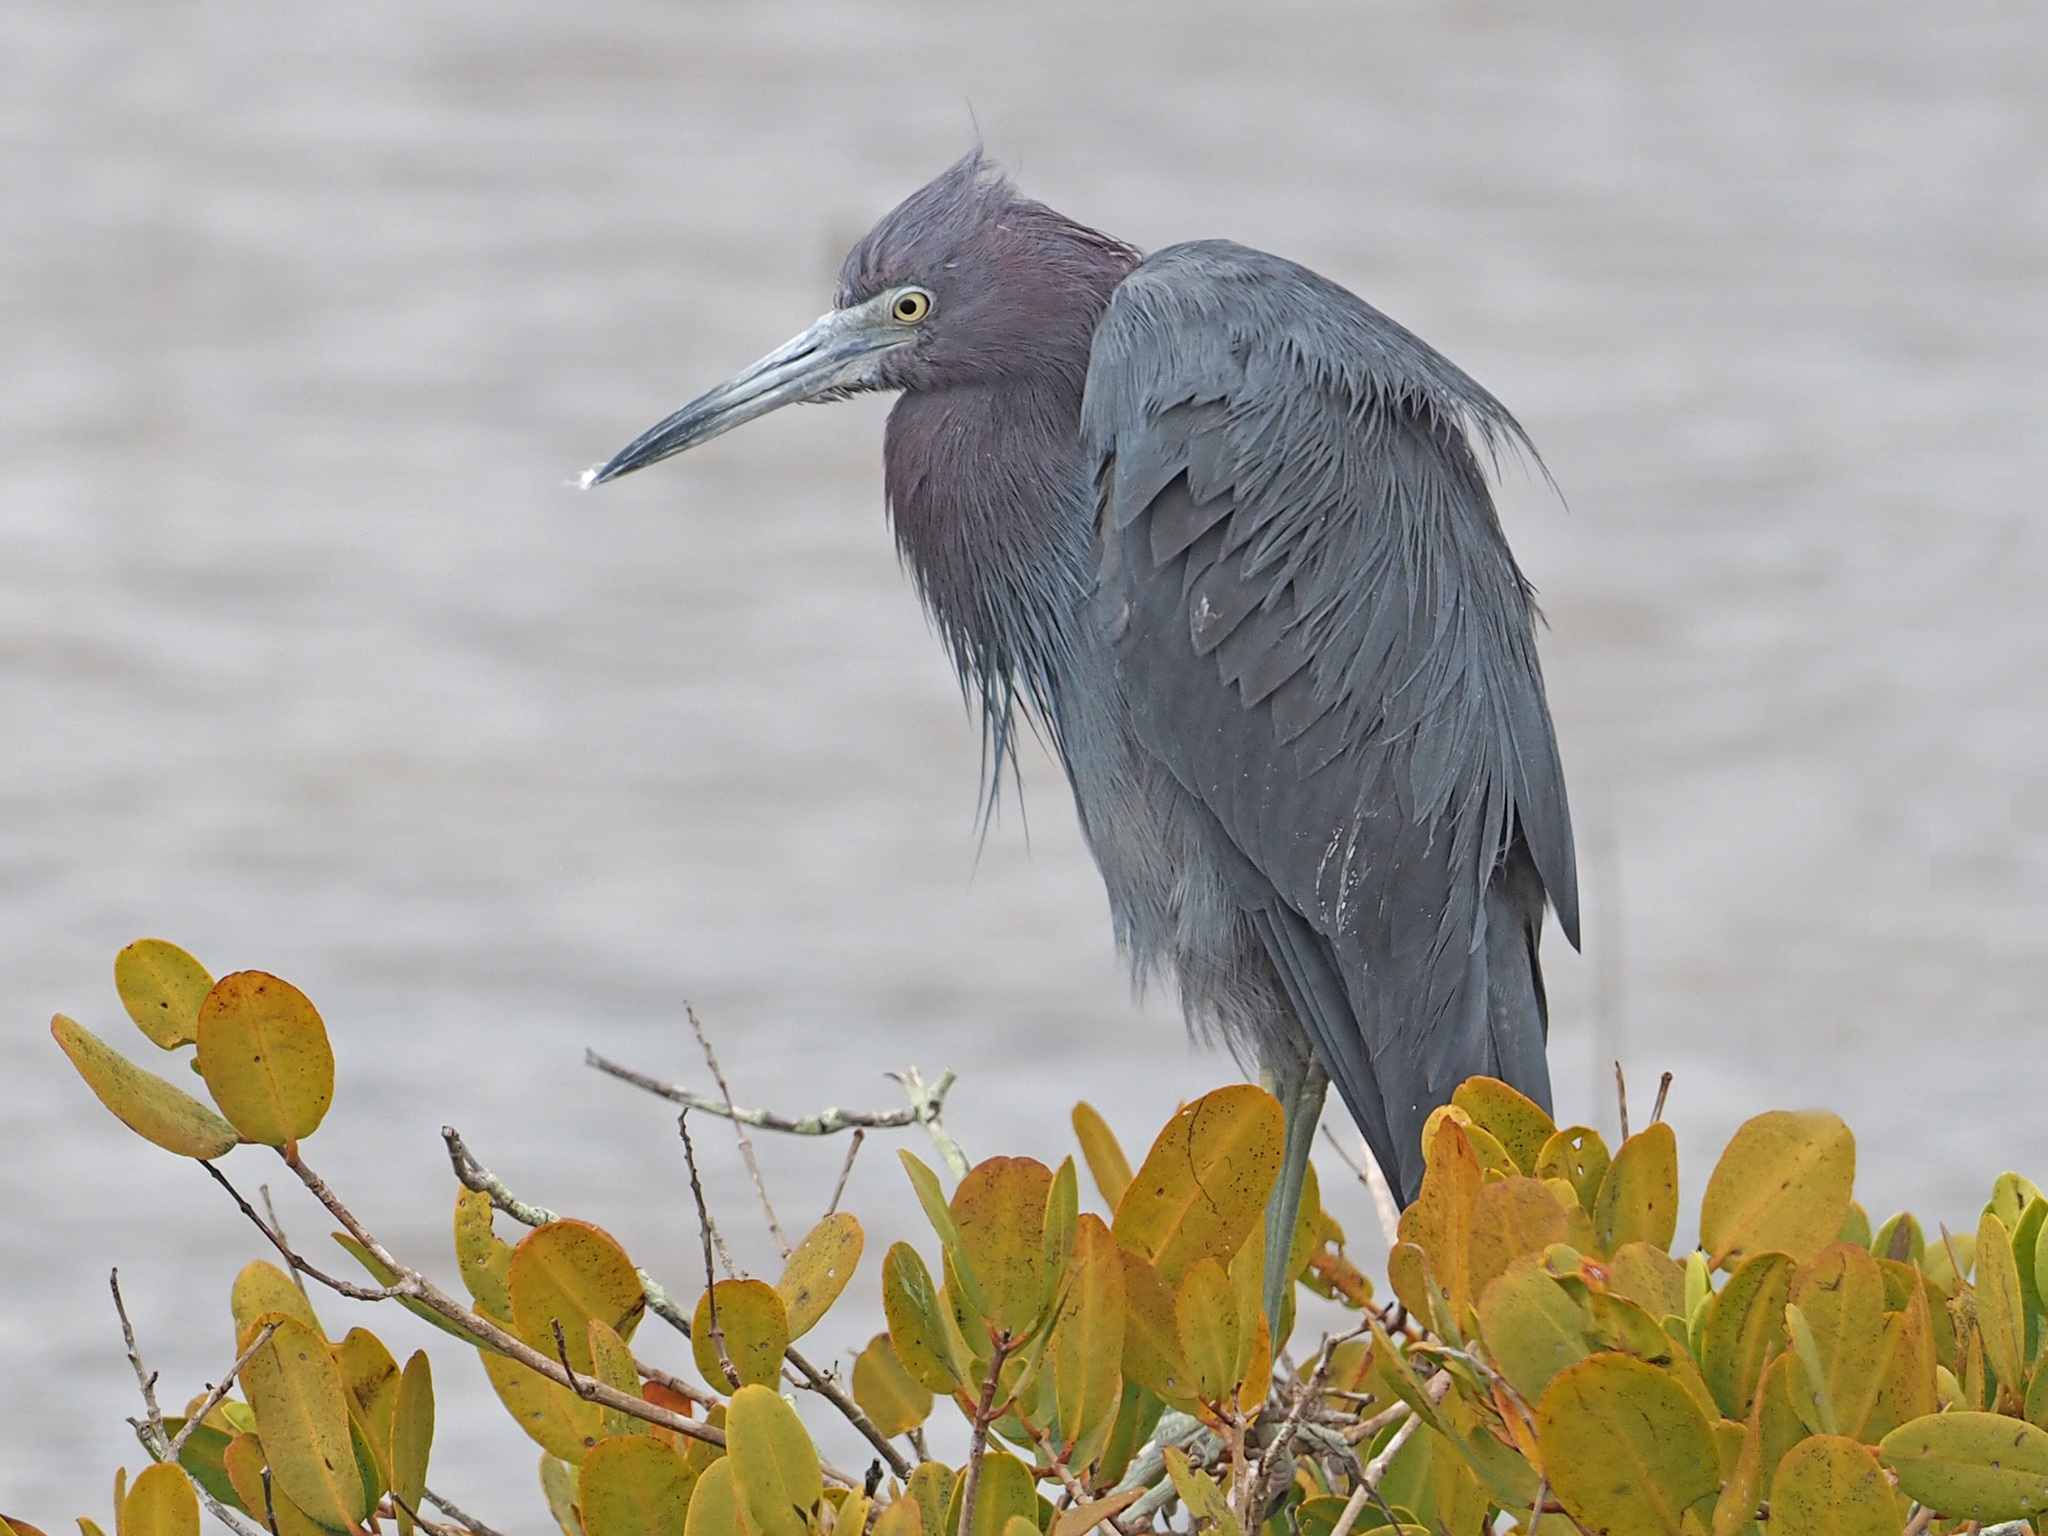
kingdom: Animalia
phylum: Chordata
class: Aves
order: Pelecaniformes
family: Ardeidae
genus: Egretta
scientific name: Egretta caerulea
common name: Little blue heron
